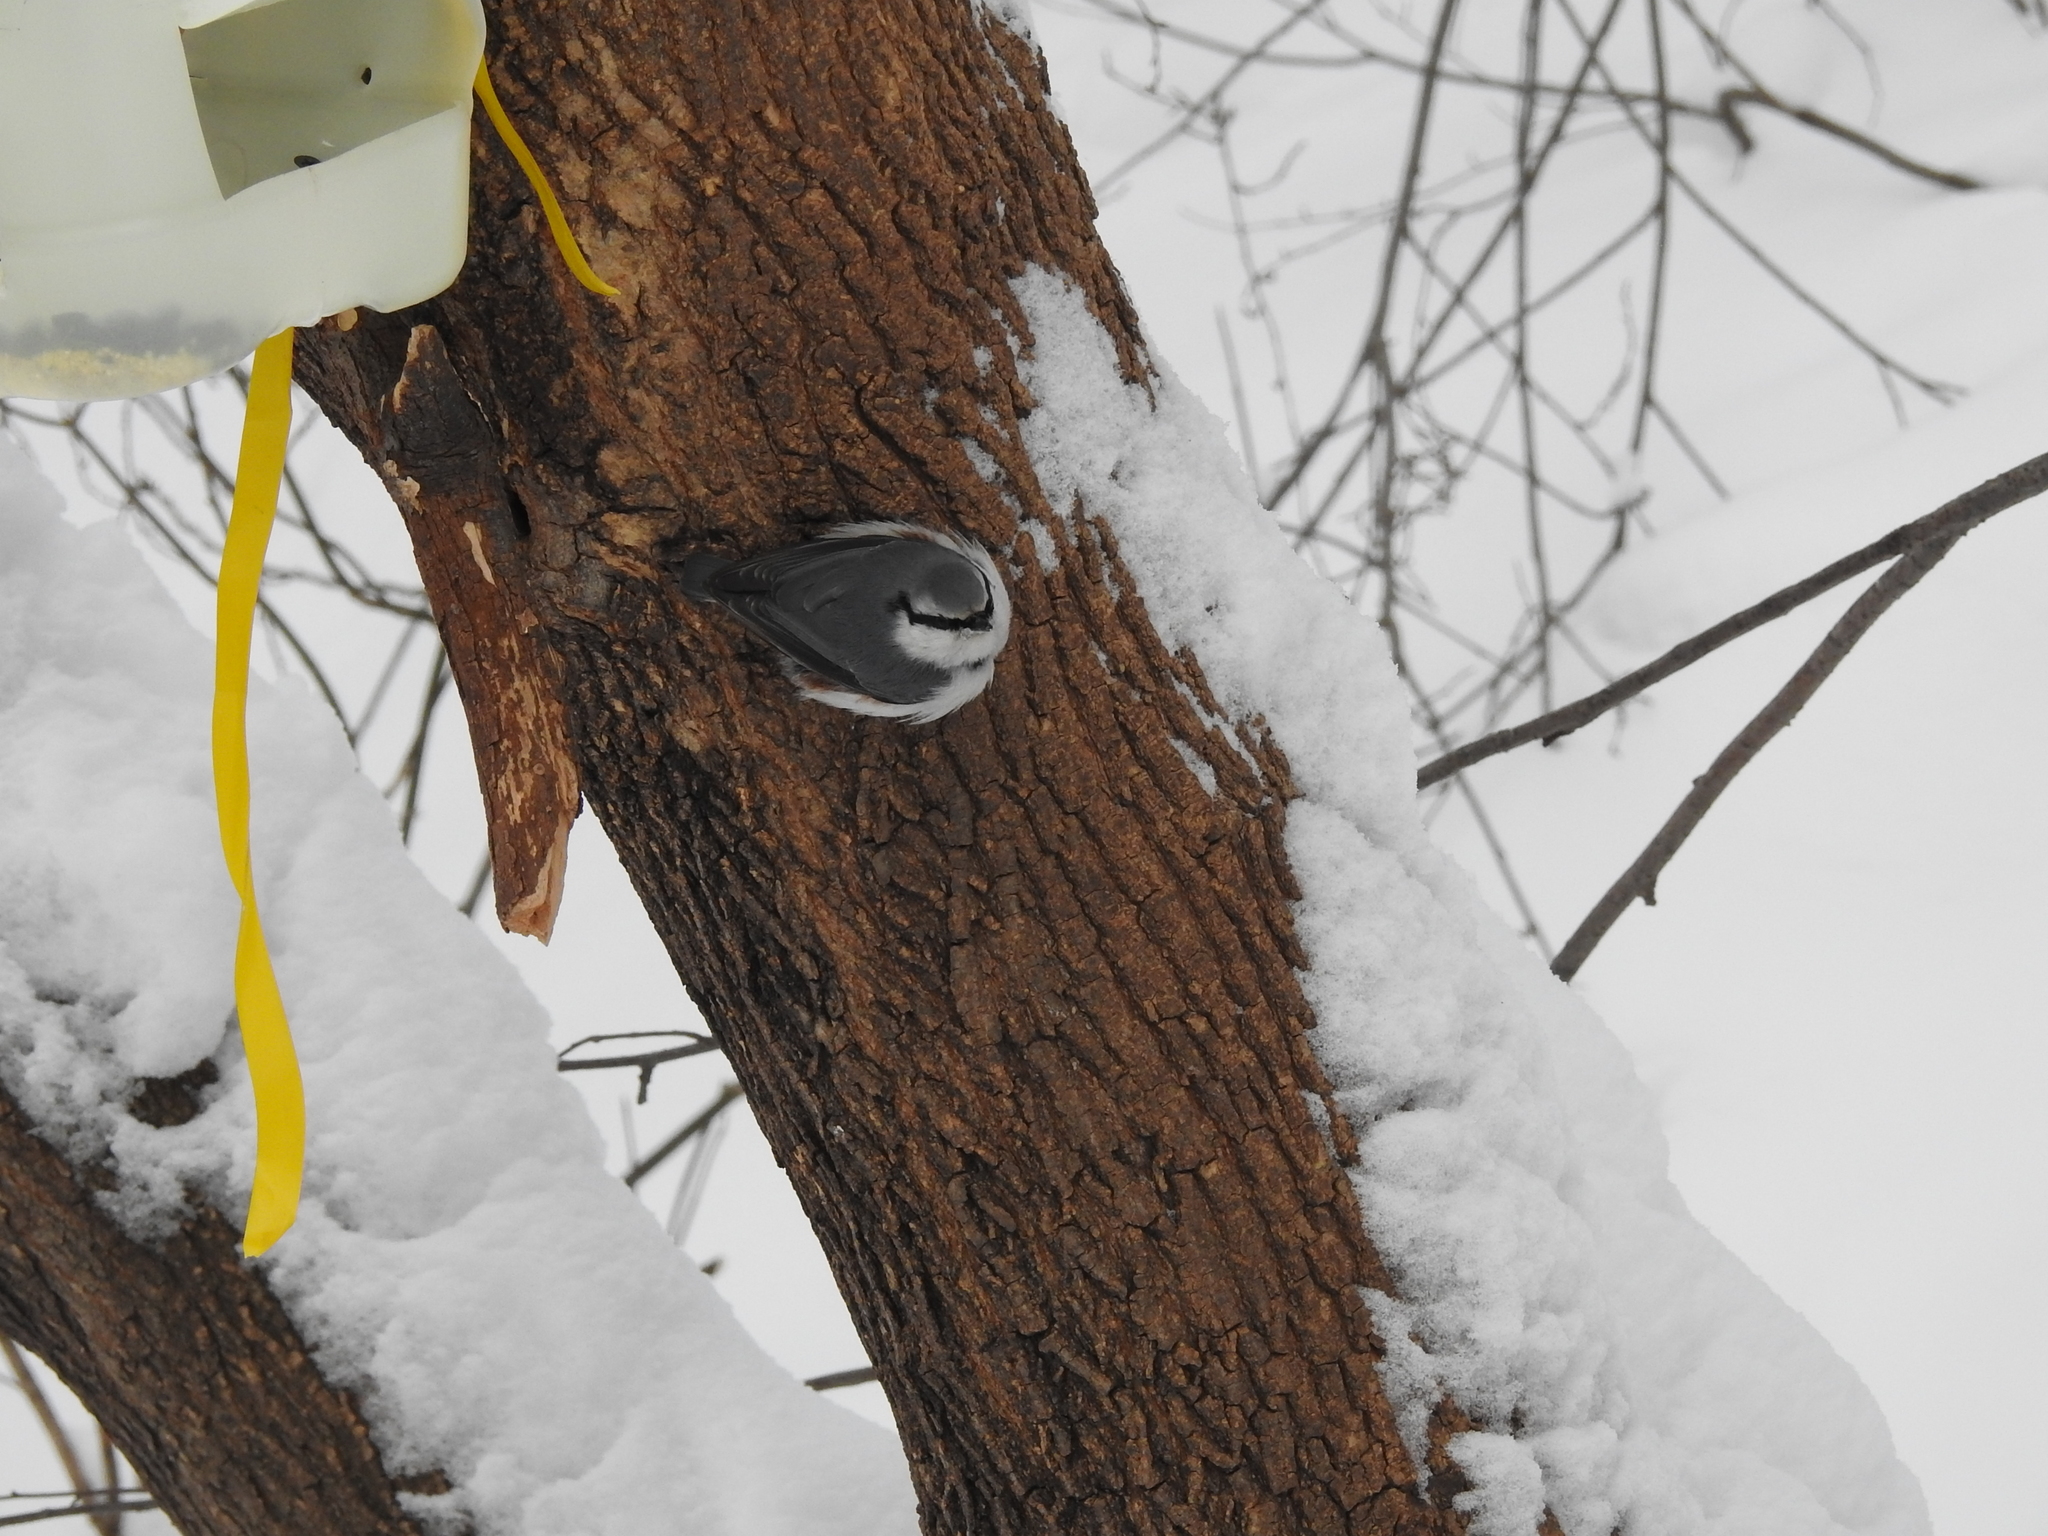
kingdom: Animalia
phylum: Chordata
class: Aves
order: Passeriformes
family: Sittidae
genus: Sitta
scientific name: Sitta europaea
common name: Eurasian nuthatch
